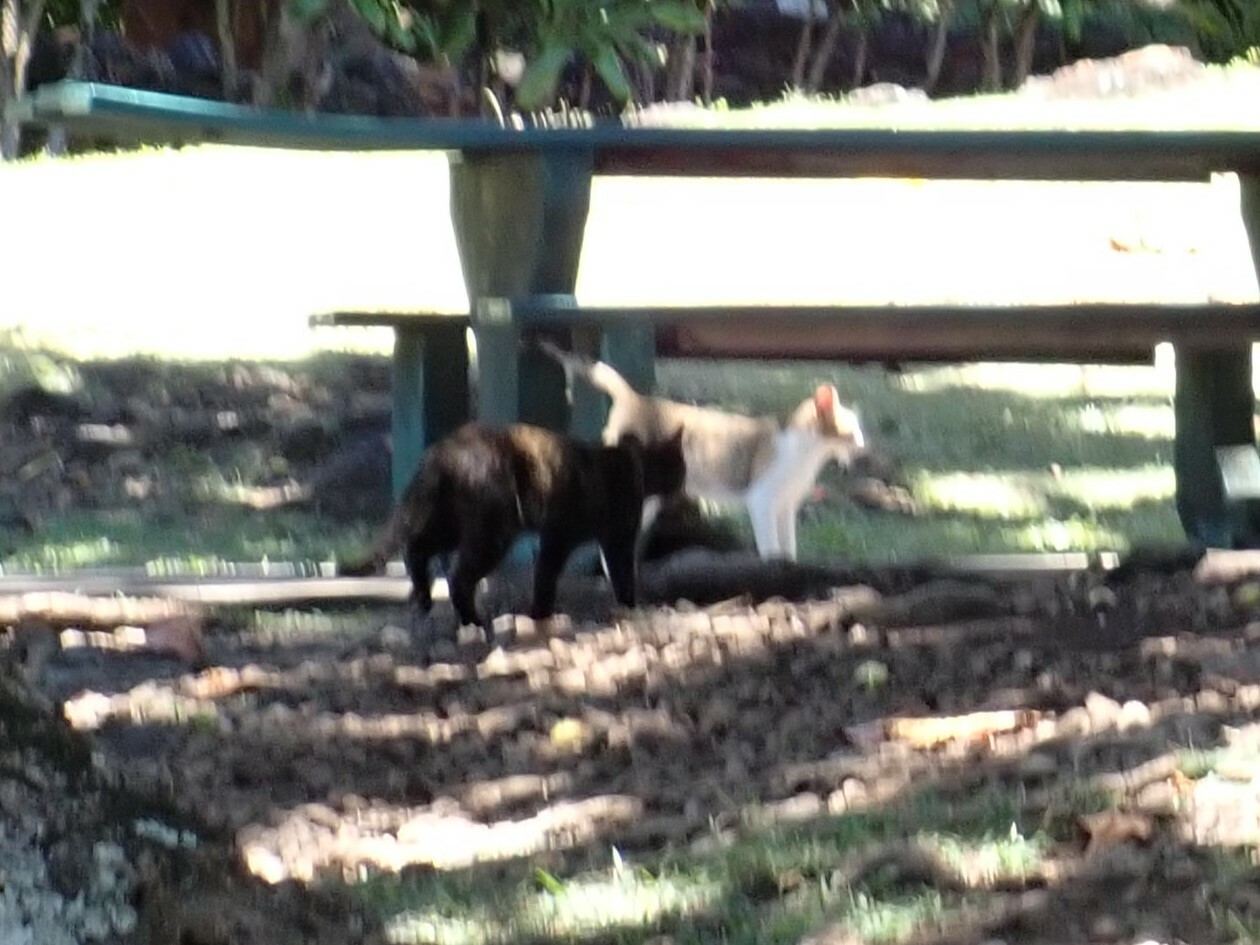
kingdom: Animalia
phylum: Chordata
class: Mammalia
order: Carnivora
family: Felidae
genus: Felis
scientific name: Felis catus
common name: Domestic cat
